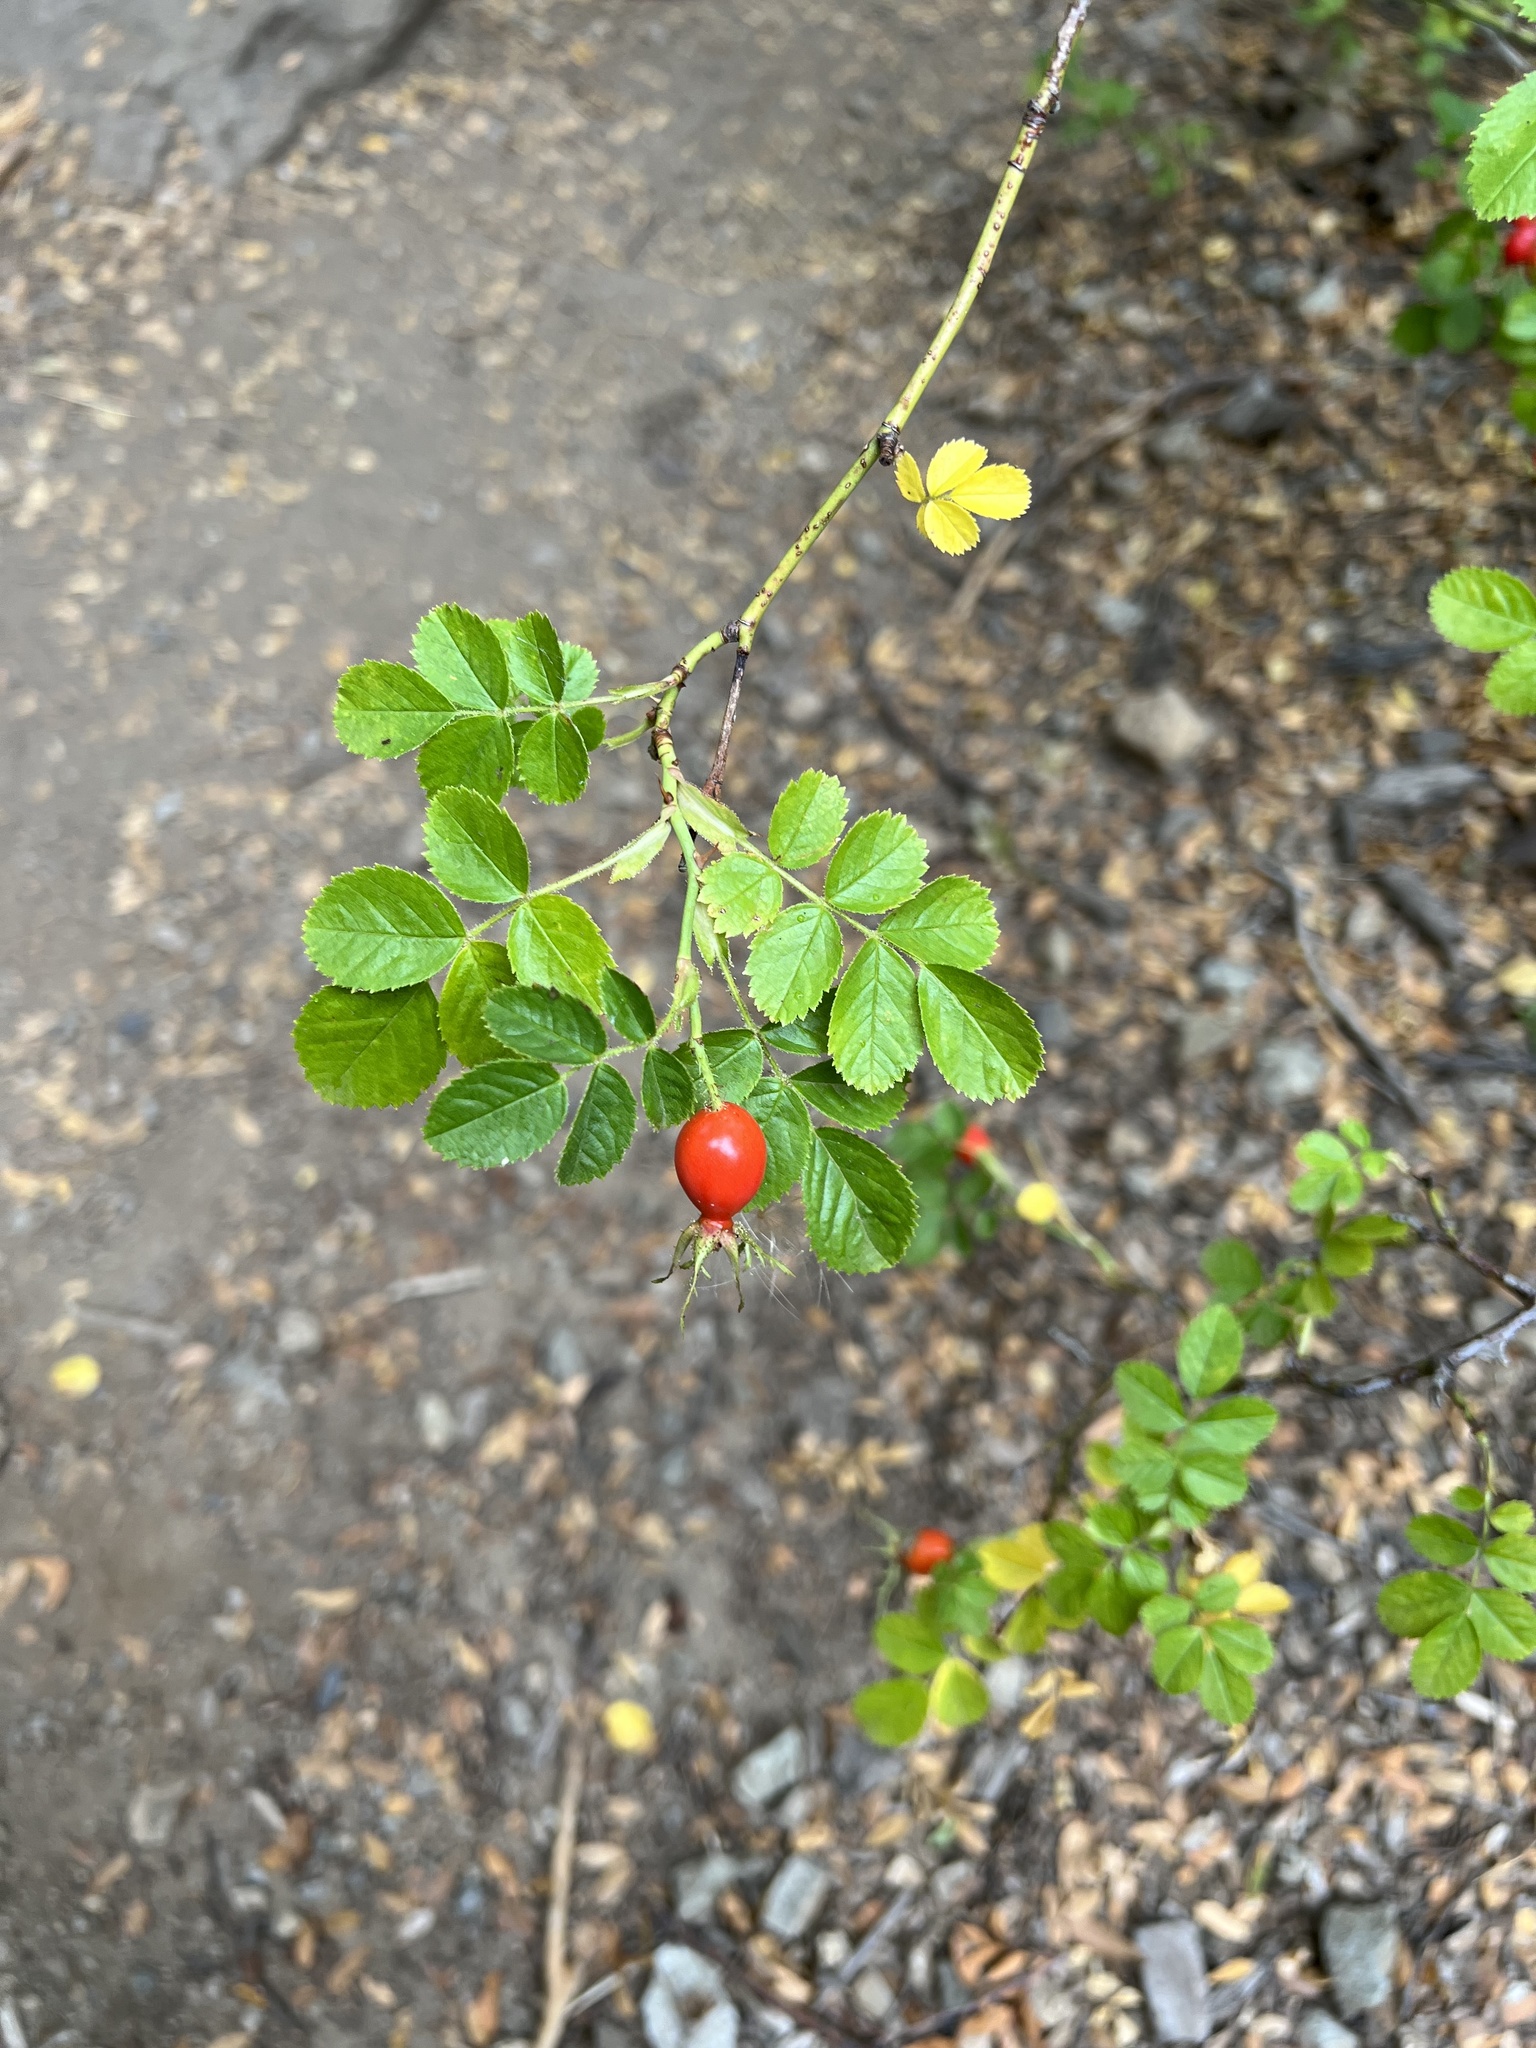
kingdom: Plantae
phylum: Tracheophyta
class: Magnoliopsida
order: Rosales
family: Rosaceae
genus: Rosa
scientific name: Rosa rubiginosa
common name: Sweet-briar
